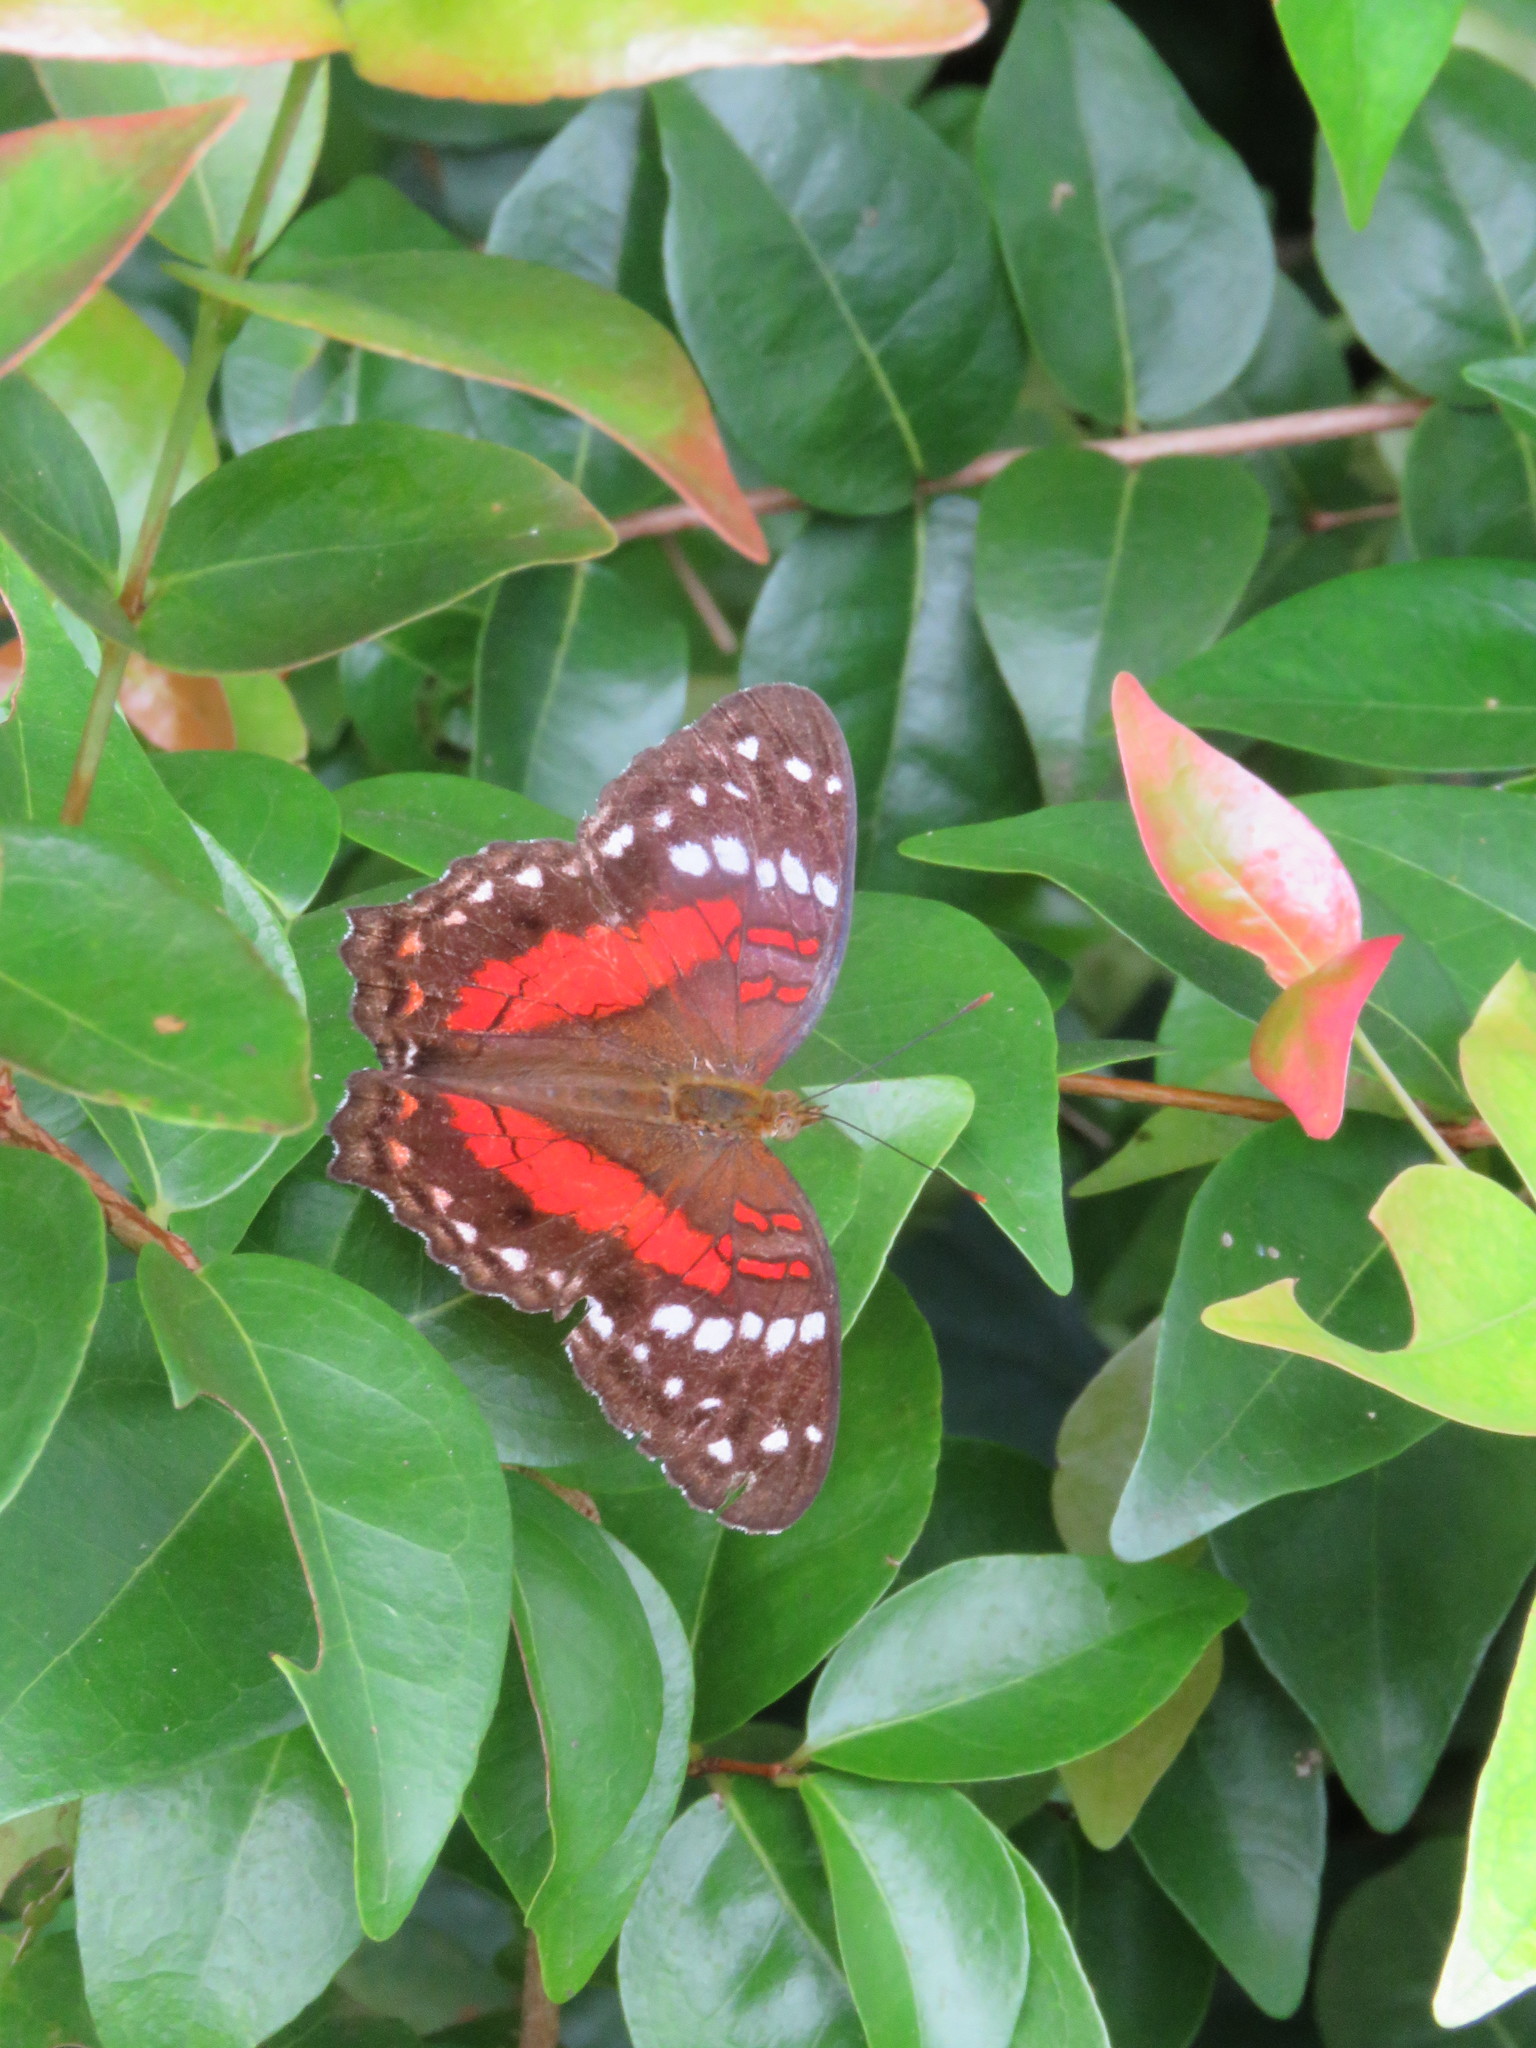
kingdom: Animalia
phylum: Arthropoda
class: Insecta
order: Lepidoptera
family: Nymphalidae
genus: Anartia
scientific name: Anartia amathea
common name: Red peacock
